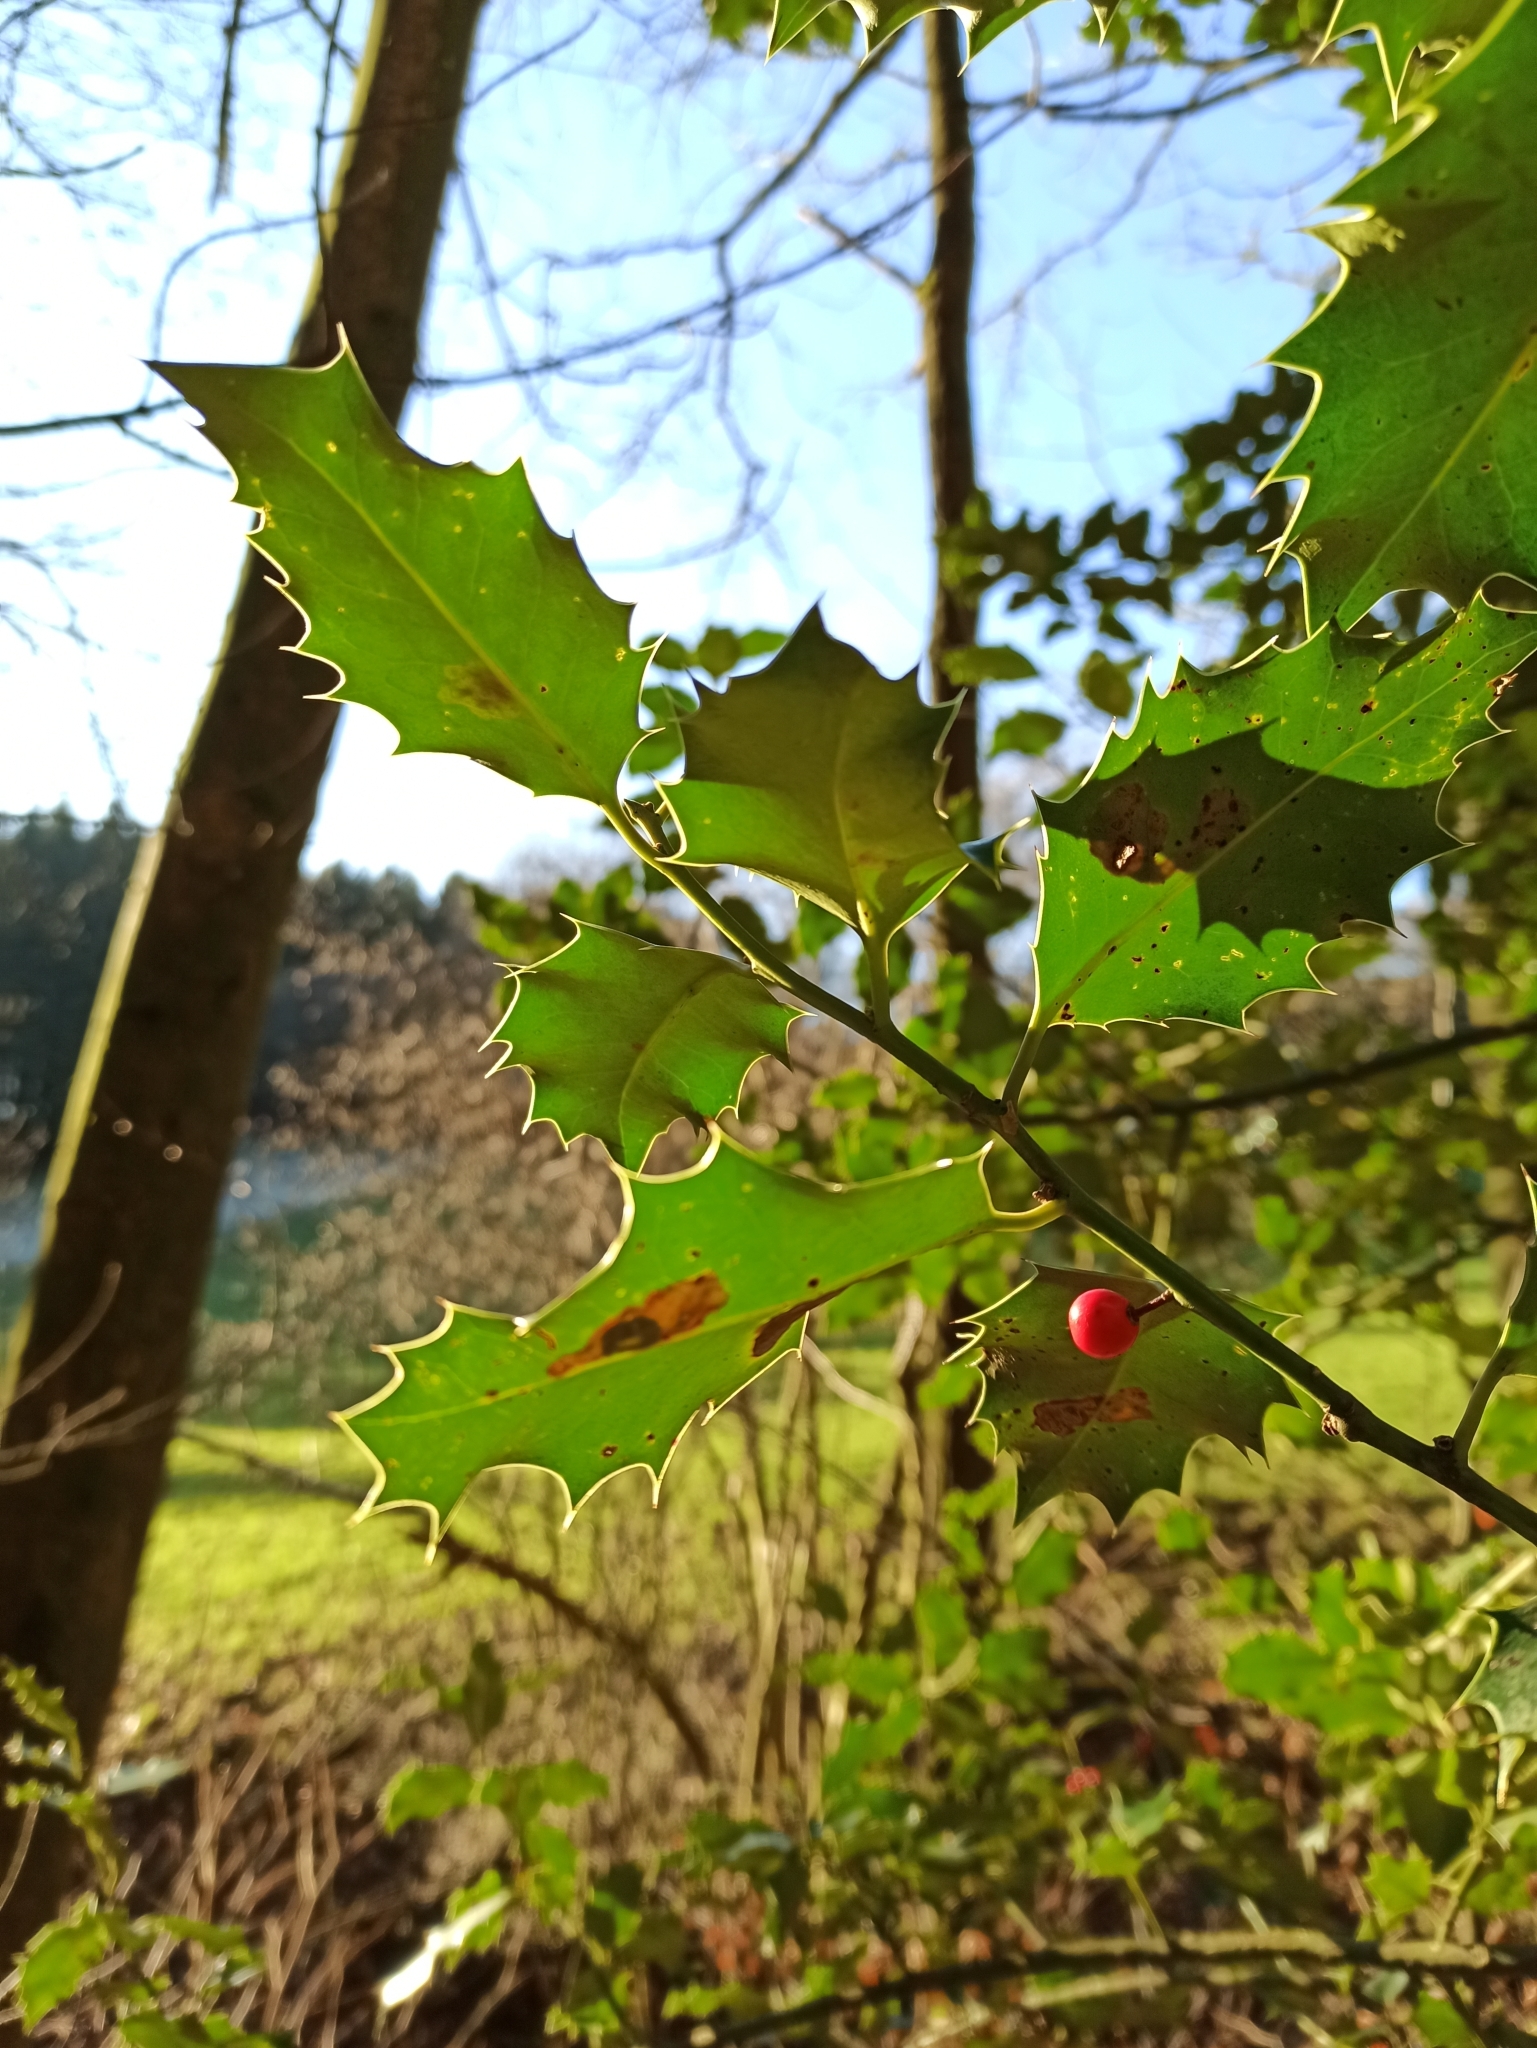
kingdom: Plantae
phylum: Tracheophyta
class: Magnoliopsida
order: Aquifoliales
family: Aquifoliaceae
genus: Ilex
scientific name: Ilex aquifolium
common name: English holly
